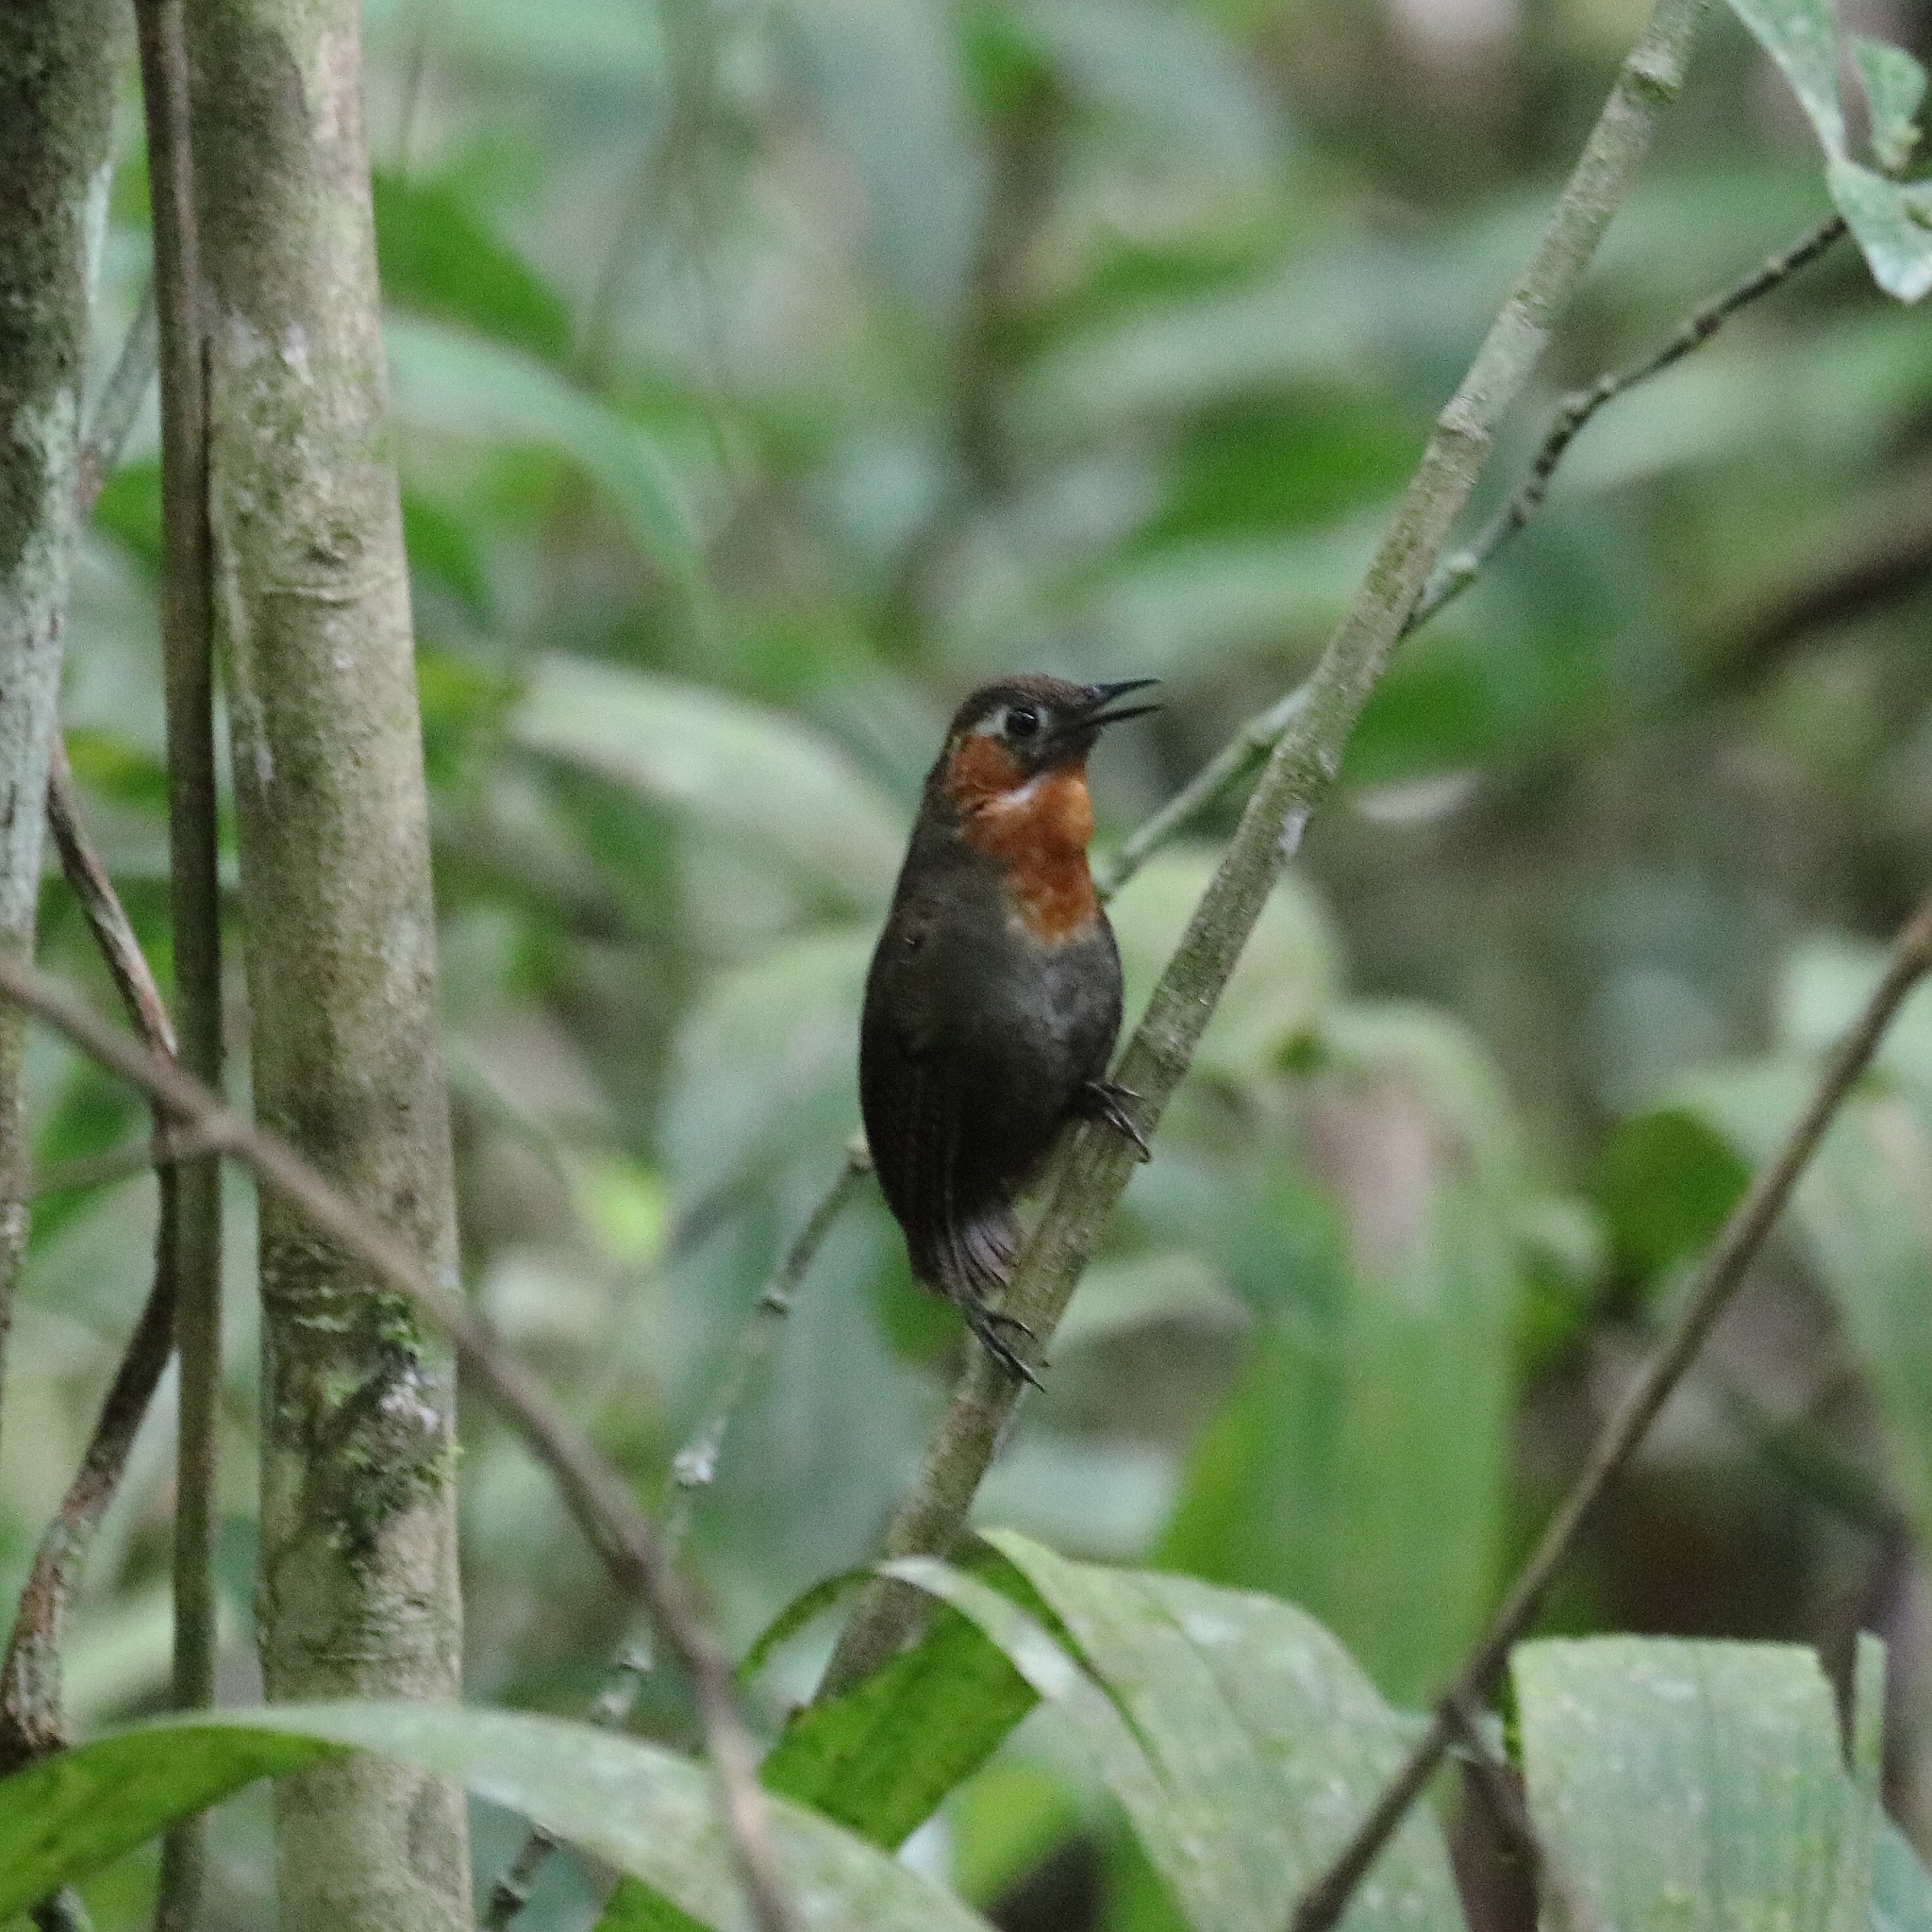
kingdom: Animalia
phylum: Chordata
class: Aves
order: Passeriformes
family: Troglodytidae
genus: Cyphorhinus
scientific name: Cyphorhinus phaeocephalus
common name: Song wren
